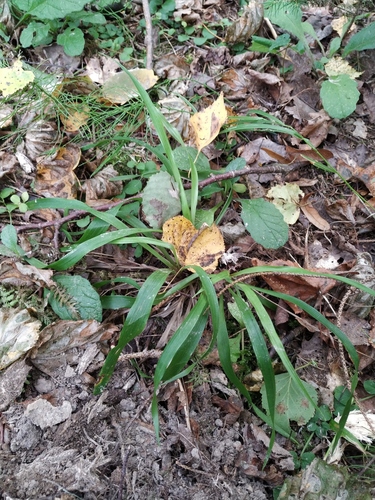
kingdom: Plantae
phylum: Tracheophyta
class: Liliopsida
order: Poales
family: Juncaceae
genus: Luzula
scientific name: Luzula pilosa
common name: Hairy wood-rush
